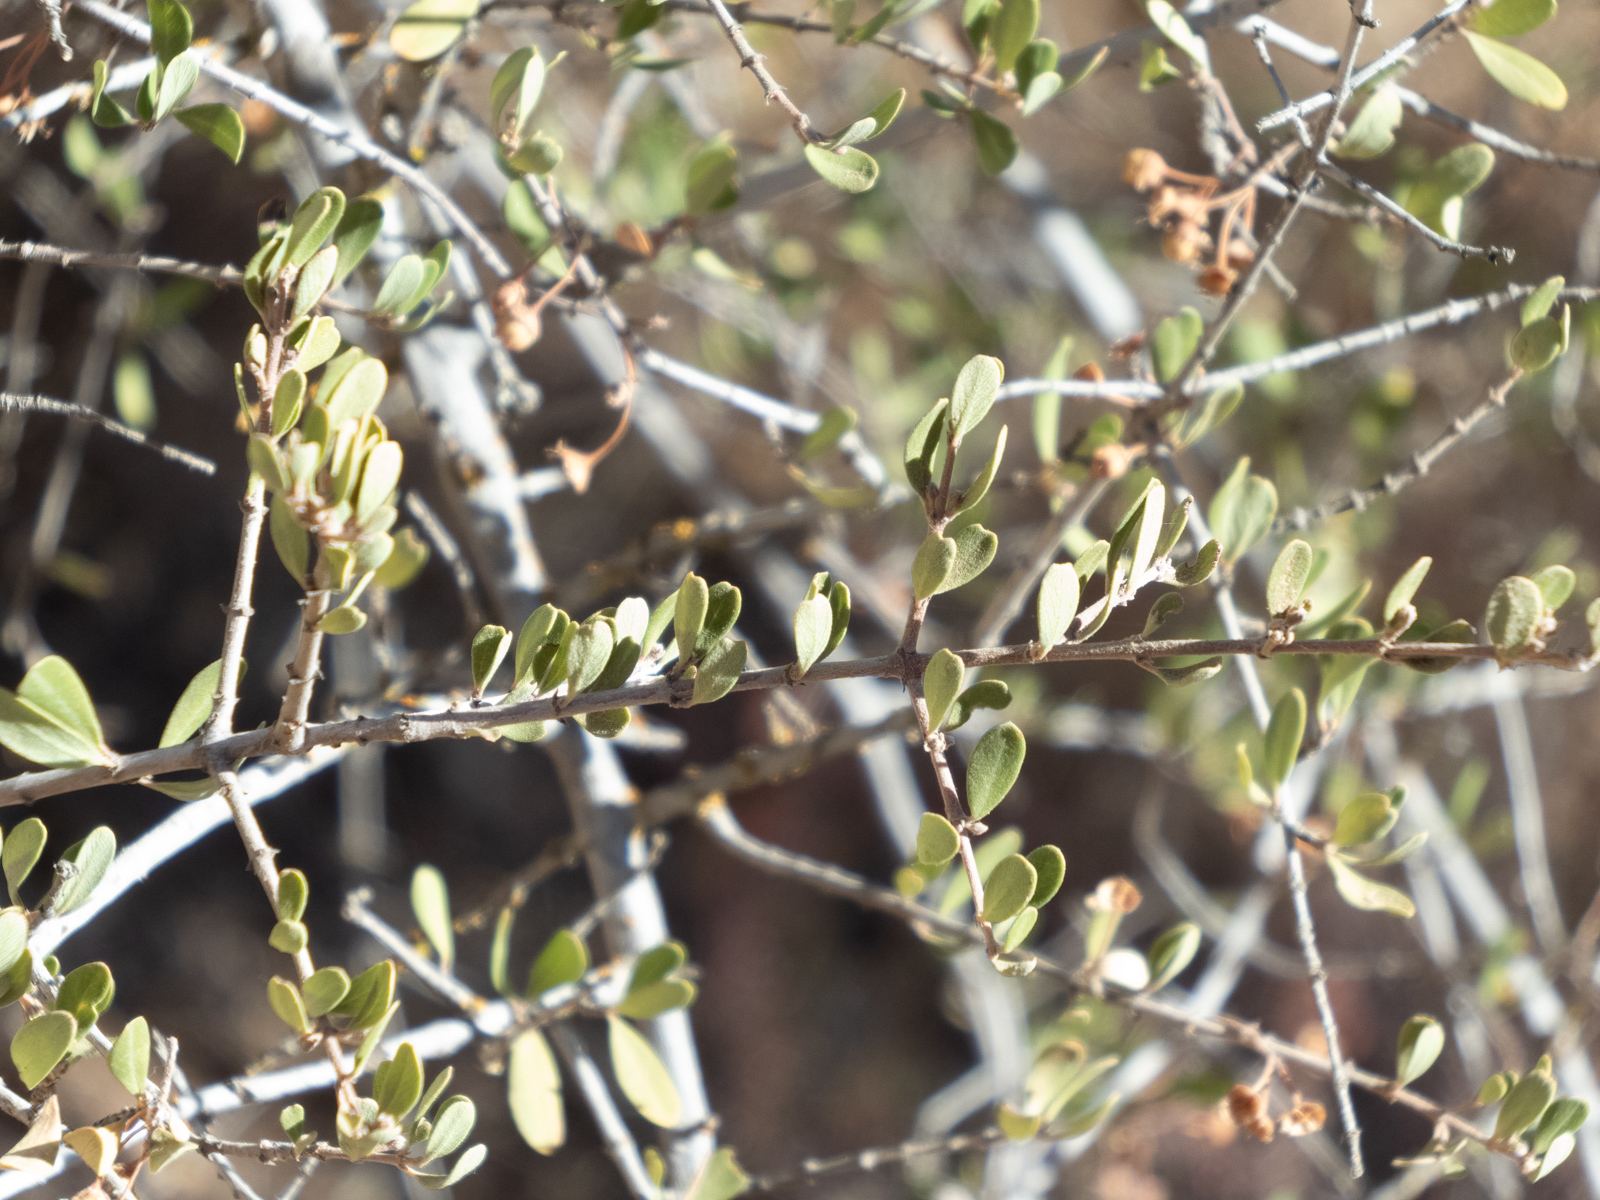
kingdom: Plantae
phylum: Tracheophyta
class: Magnoliopsida
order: Rosales
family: Rhamnaceae
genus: Ceanothus
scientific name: Ceanothus cuneatus
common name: Cuneate ceanothus
